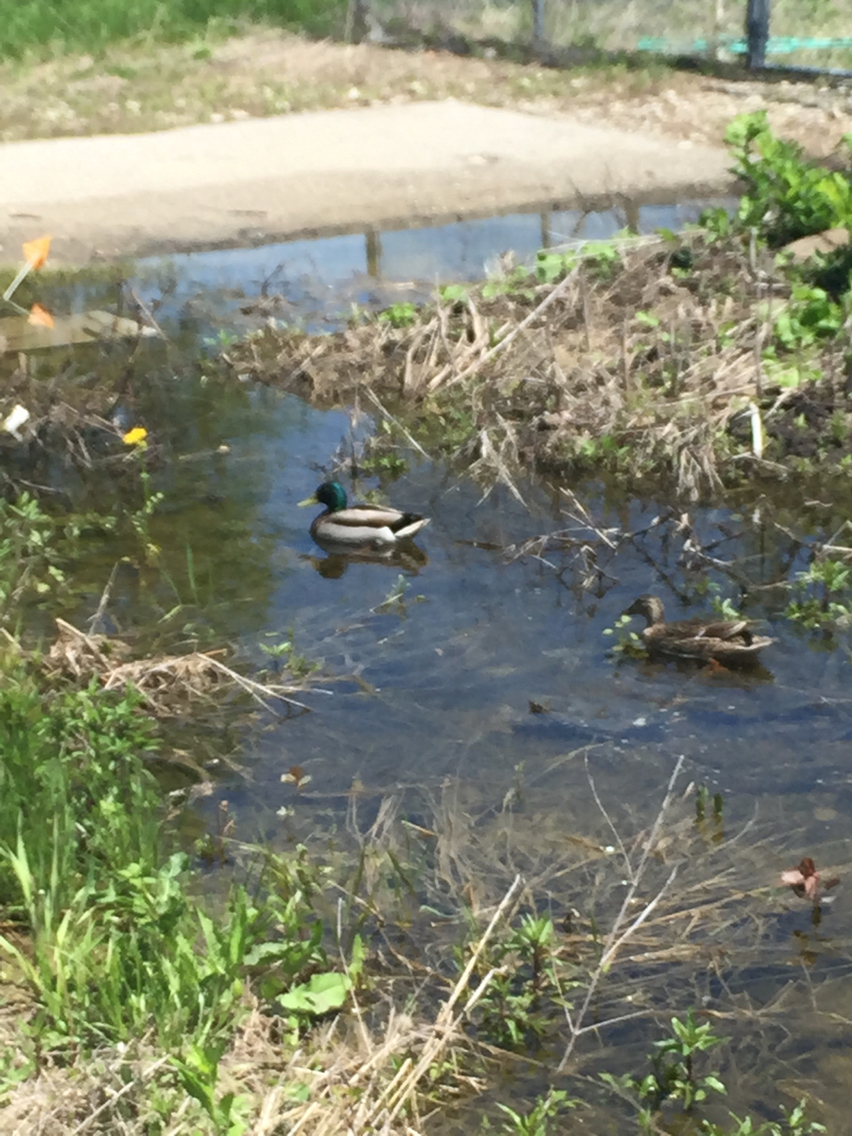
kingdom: Animalia
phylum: Chordata
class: Aves
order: Anseriformes
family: Anatidae
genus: Anas
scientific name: Anas platyrhynchos
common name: Mallard
